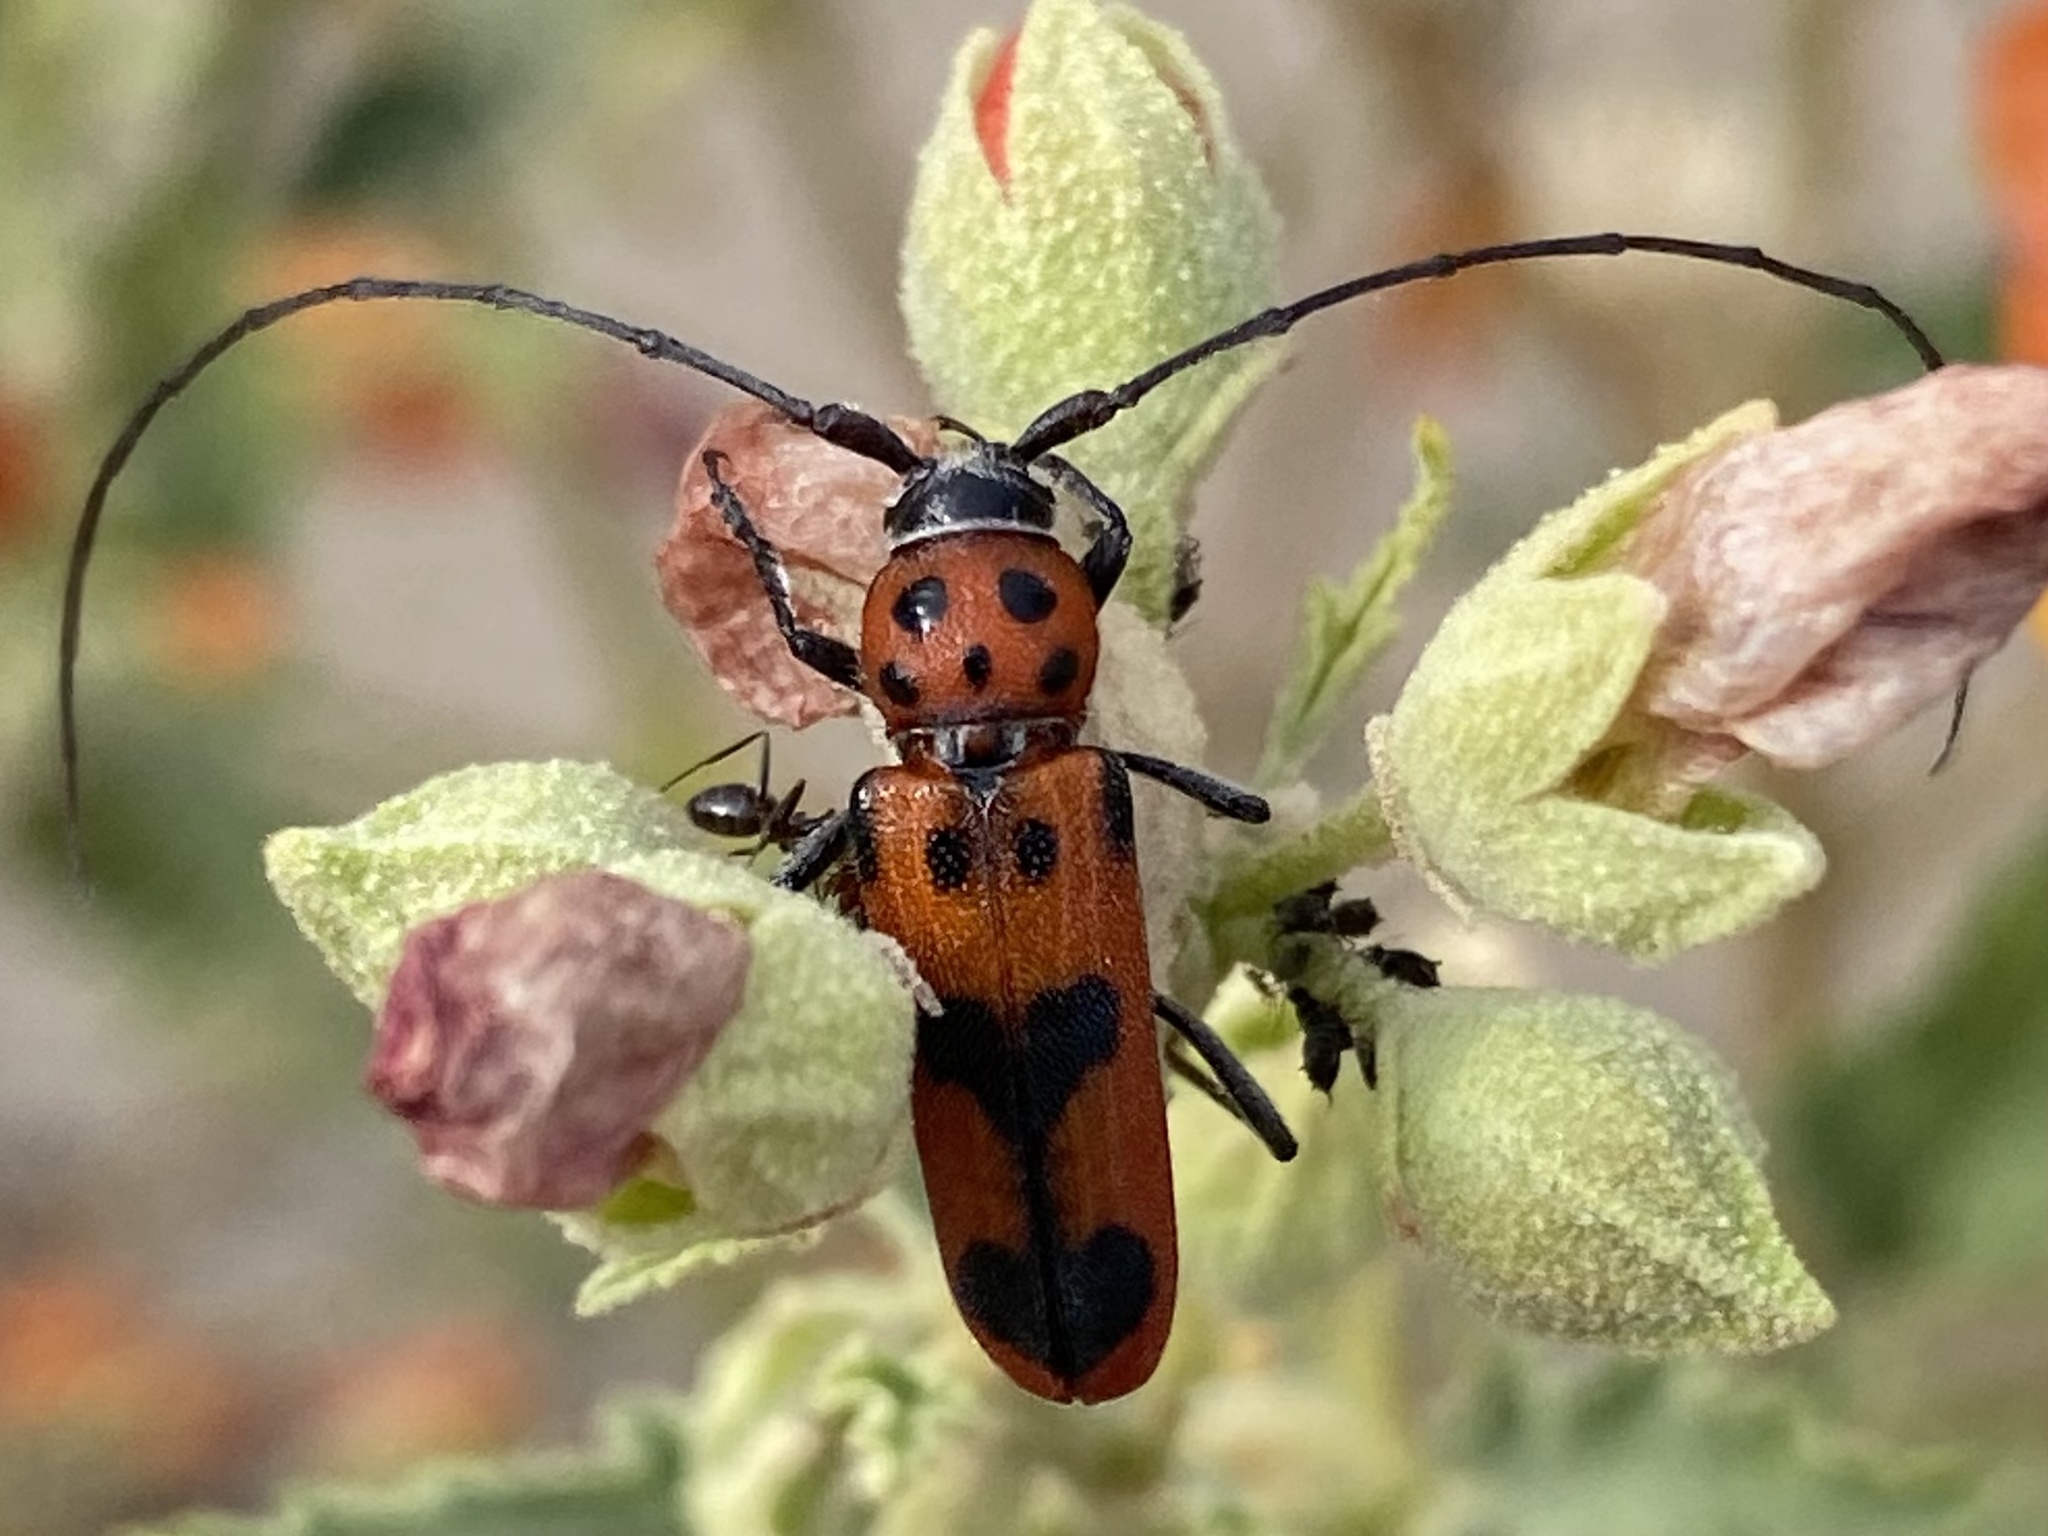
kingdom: Animalia
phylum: Arthropoda
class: Insecta
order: Coleoptera
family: Cerambycidae
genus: Tylosis
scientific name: Tylosis maculatus
